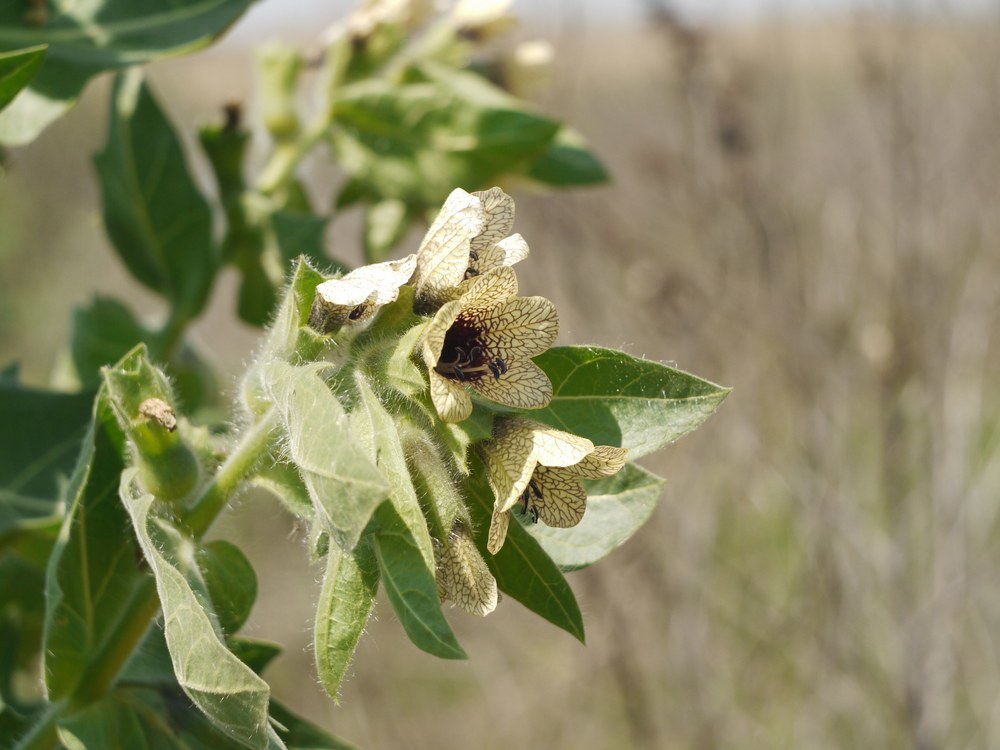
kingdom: Plantae
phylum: Tracheophyta
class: Magnoliopsida
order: Solanales
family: Solanaceae
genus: Hyoscyamus
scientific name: Hyoscyamus niger
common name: Henbane
